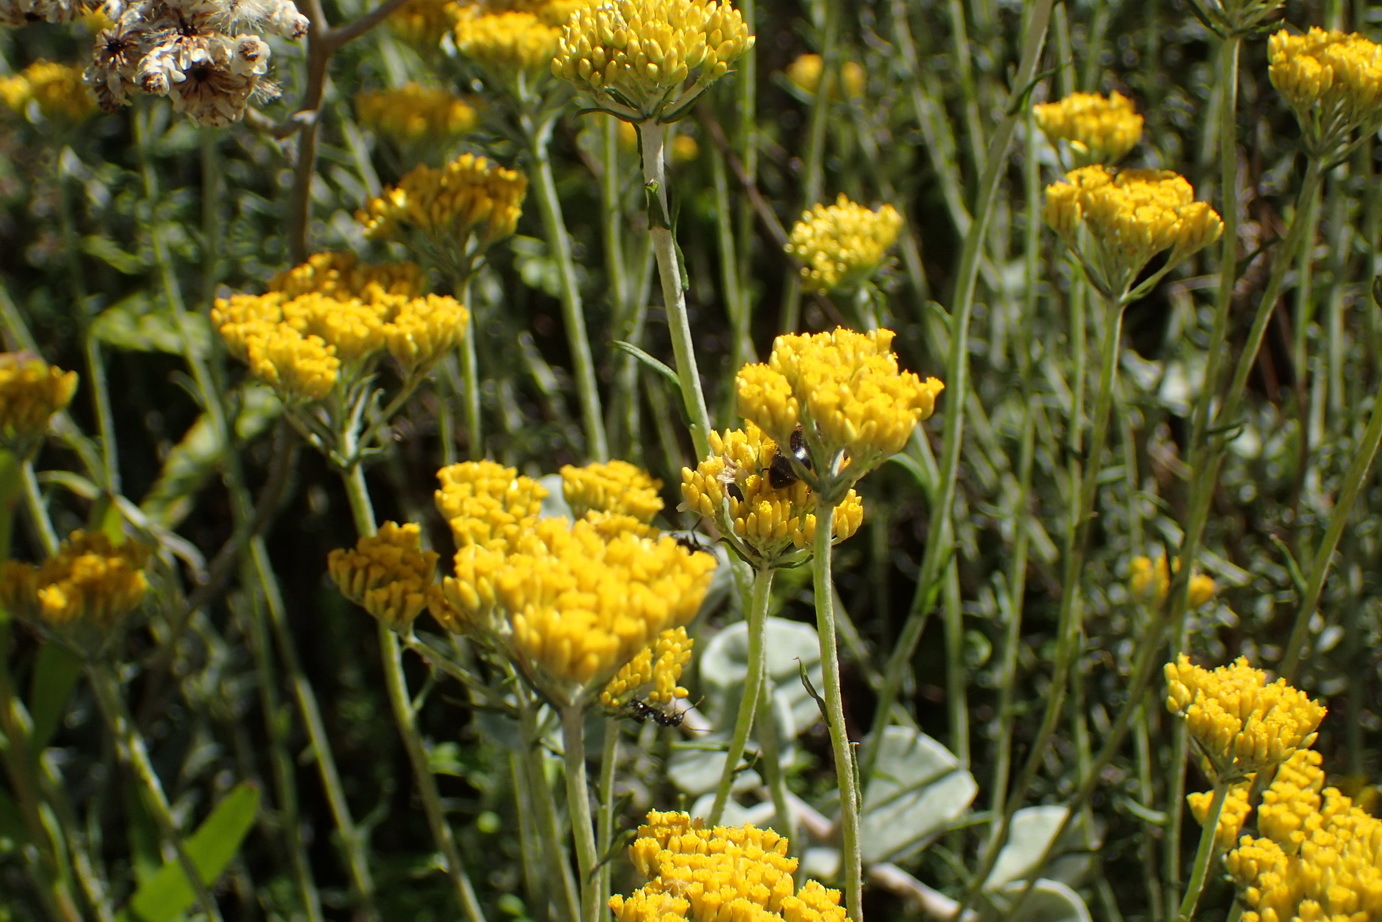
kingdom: Plantae
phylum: Tracheophyta
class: Magnoliopsida
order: Asterales
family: Asteraceae
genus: Helichrysum
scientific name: Helichrysum cymosum
